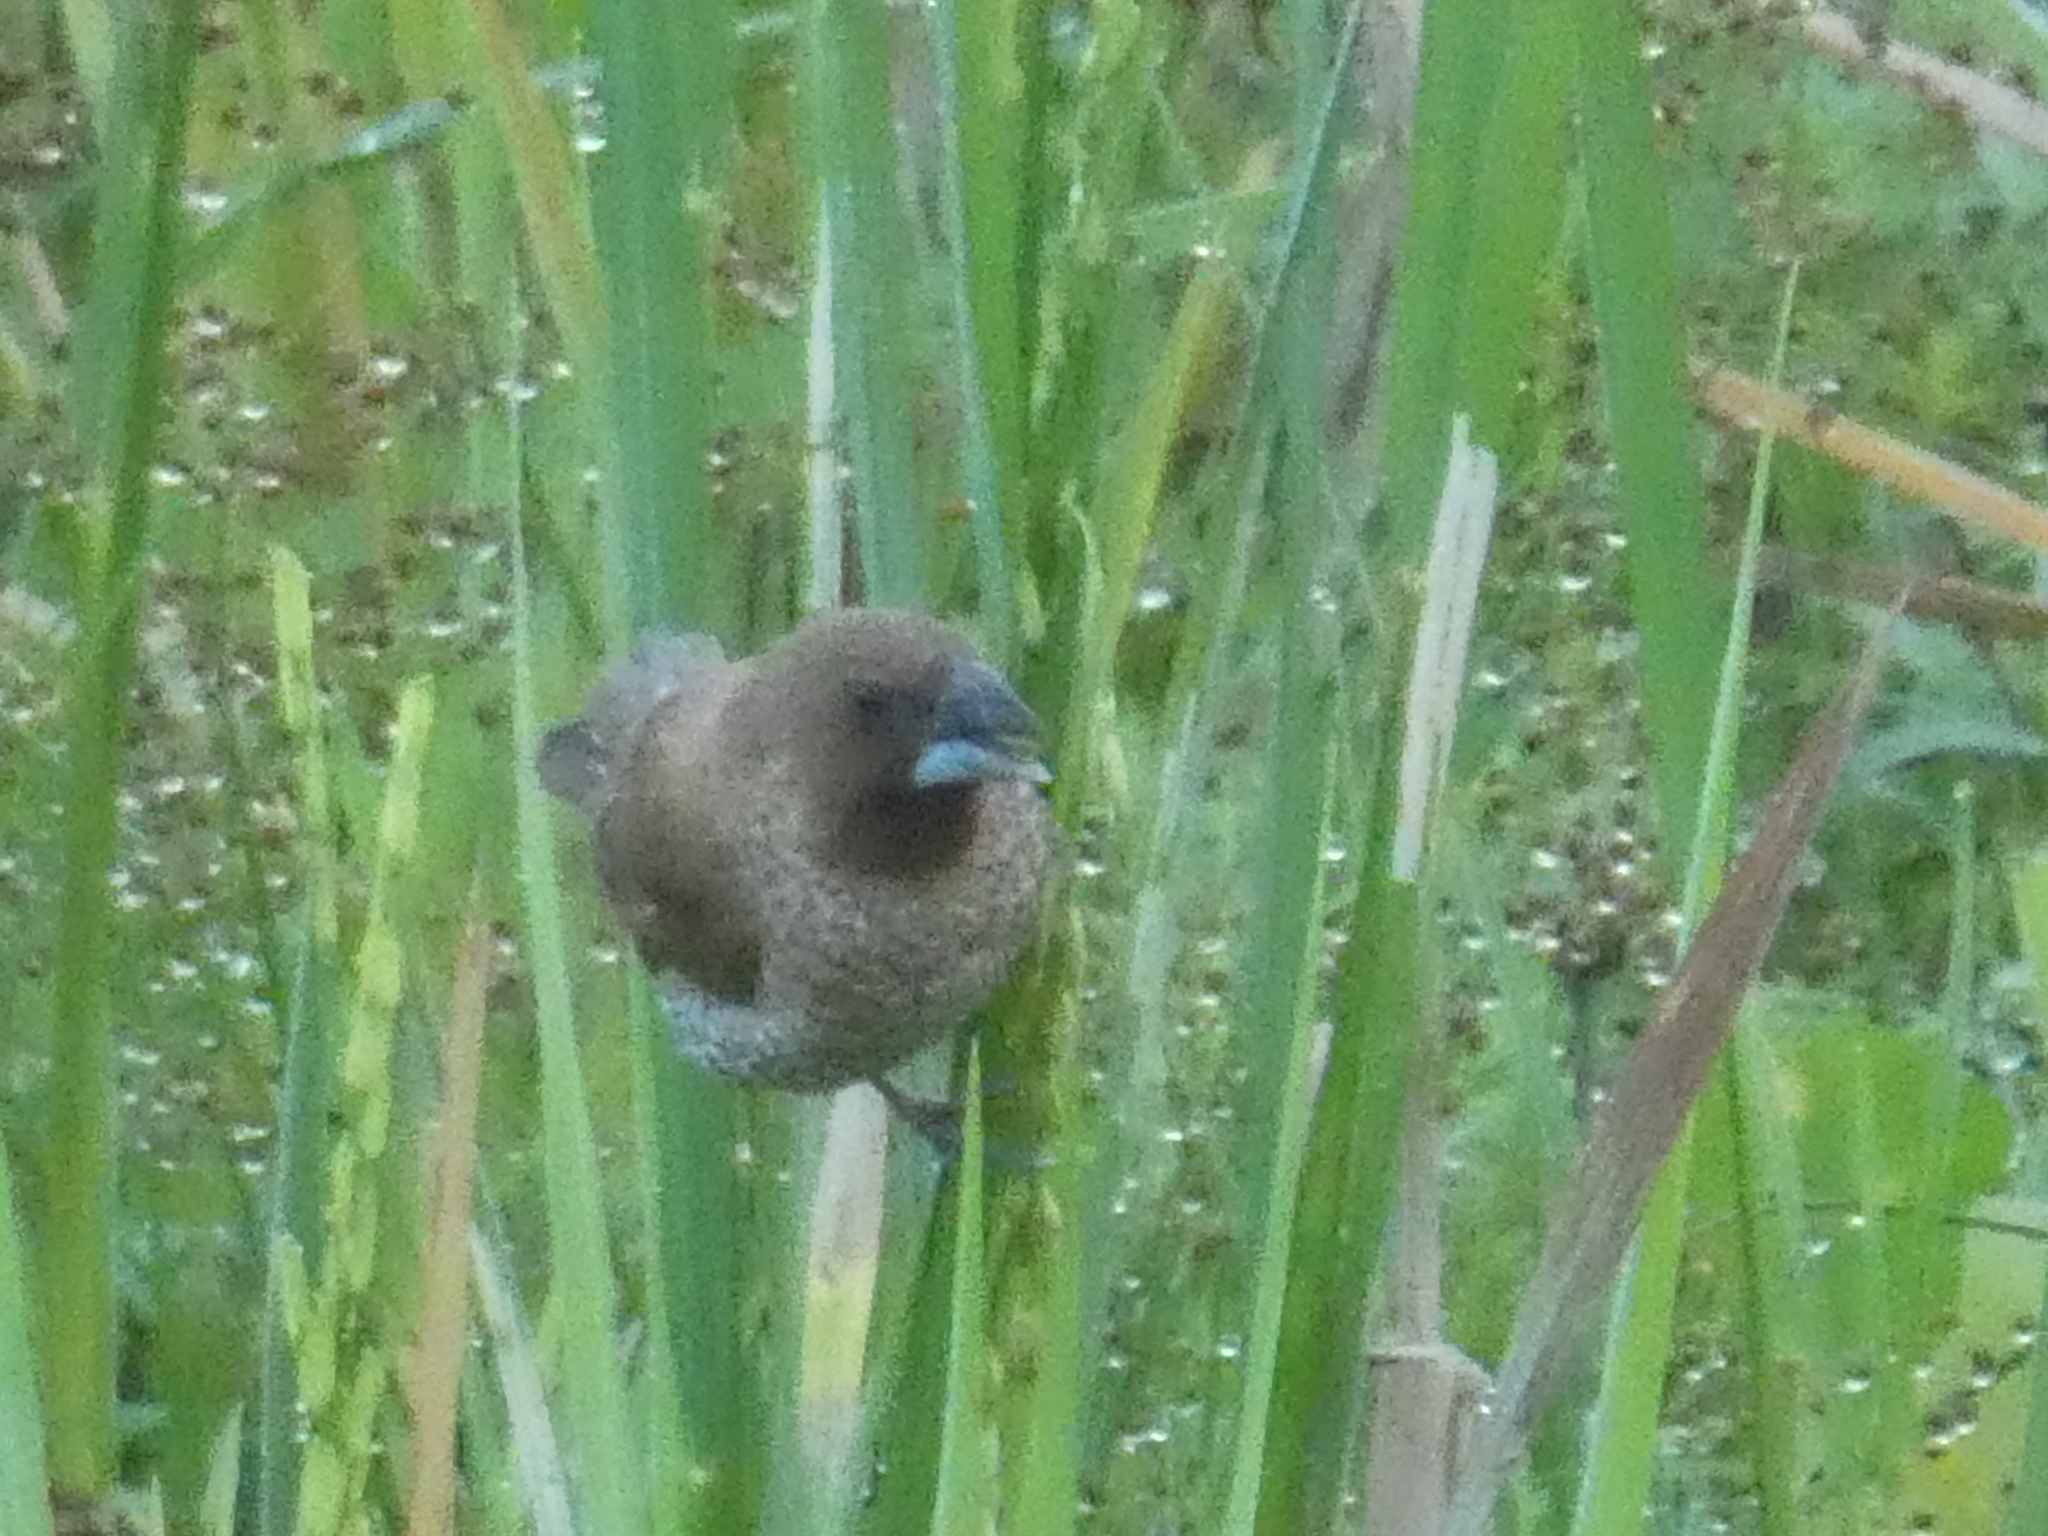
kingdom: Animalia
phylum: Chordata
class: Aves
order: Passeriformes
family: Estrildidae
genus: Lonchura
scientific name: Lonchura punctulata
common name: Scaly-breasted munia
